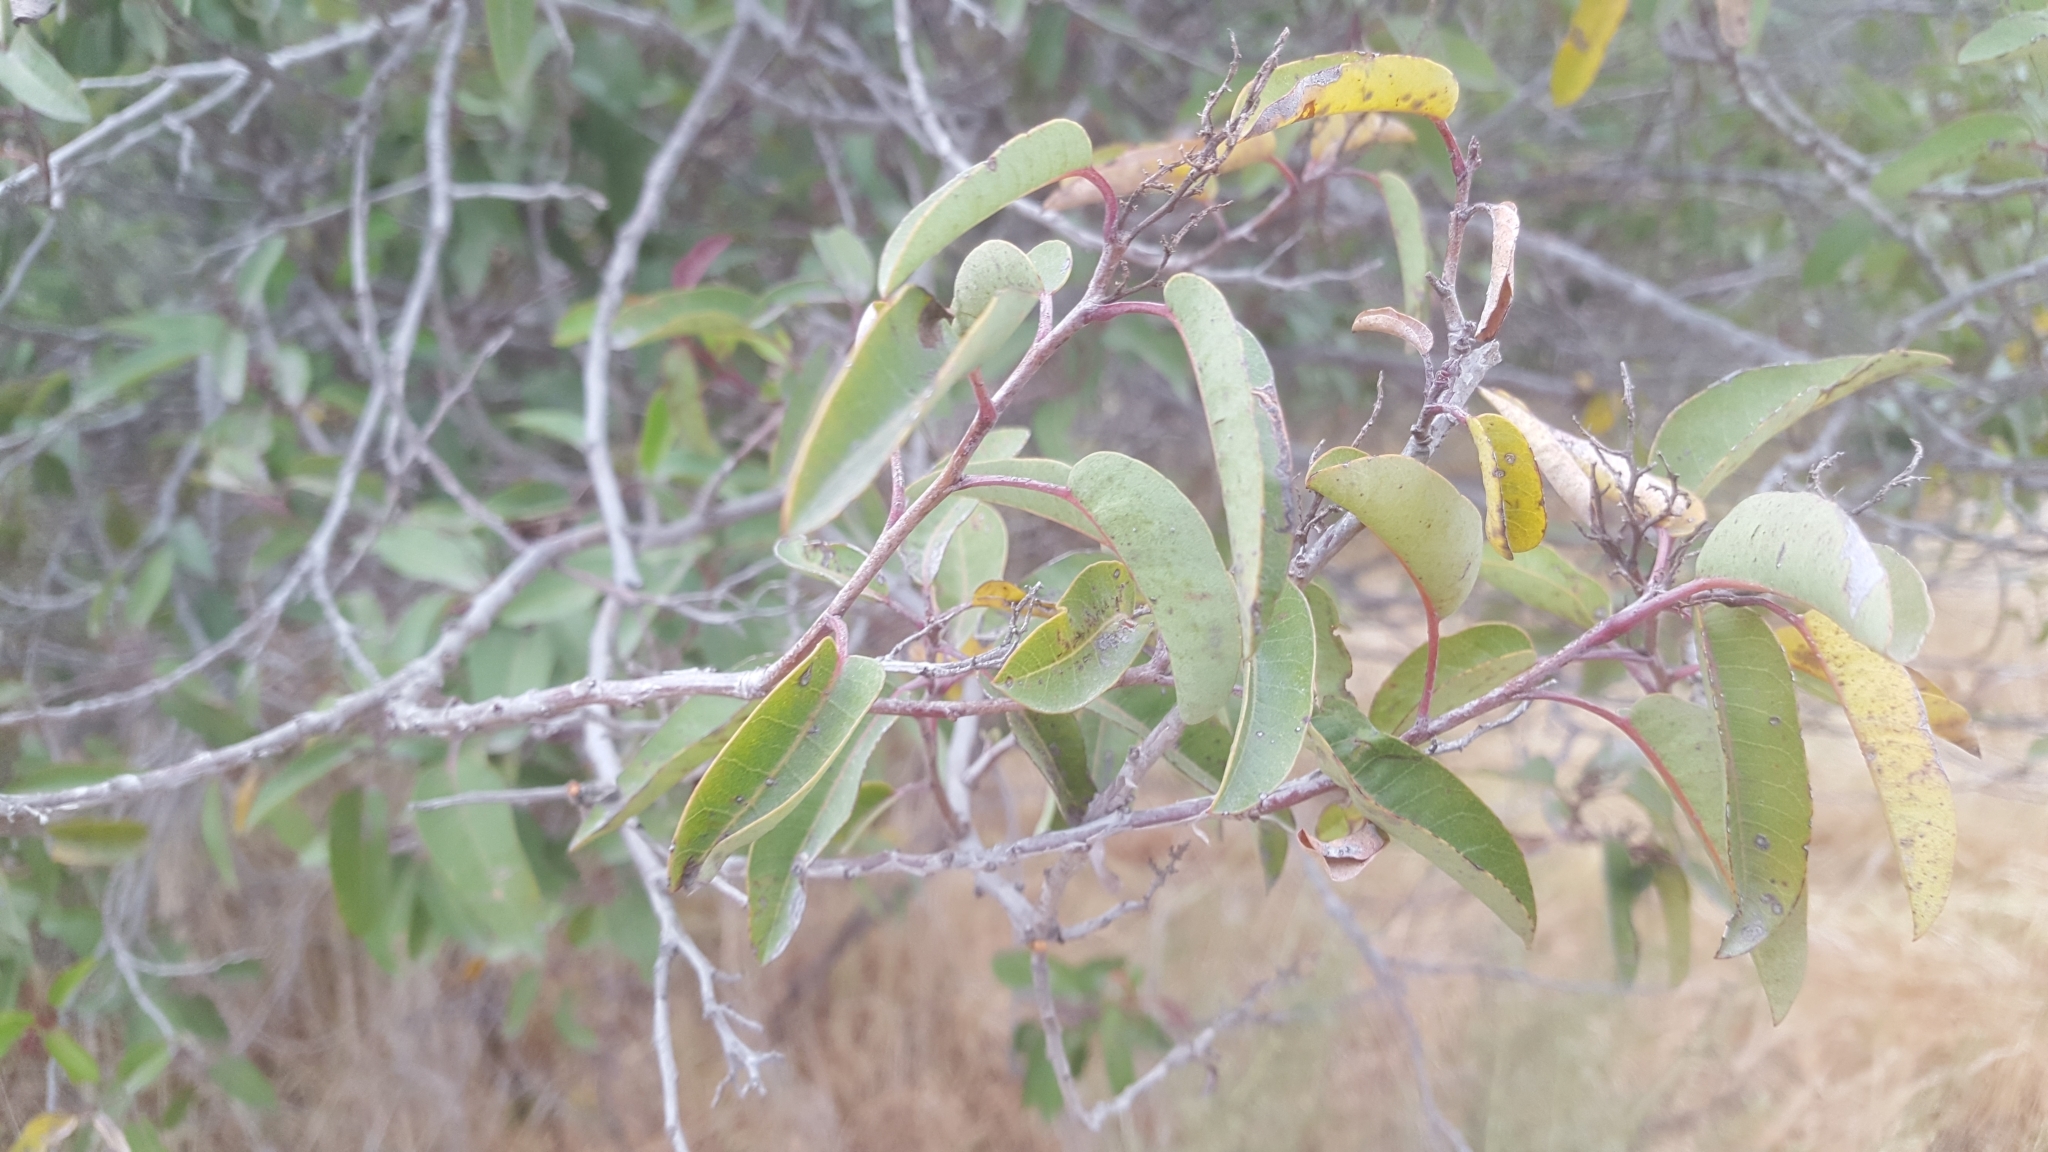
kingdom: Plantae
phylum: Tracheophyta
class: Magnoliopsida
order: Sapindales
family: Anacardiaceae
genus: Malosma
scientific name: Malosma laurina
